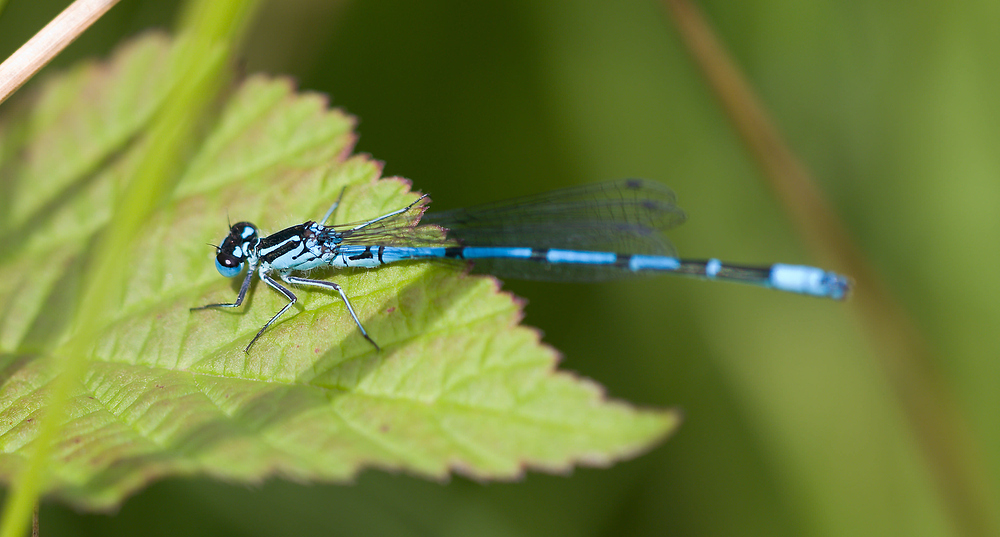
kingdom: Animalia
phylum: Arthropoda
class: Insecta
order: Odonata
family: Coenagrionidae
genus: Coenagrion
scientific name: Coenagrion puella
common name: Azure damselfly
